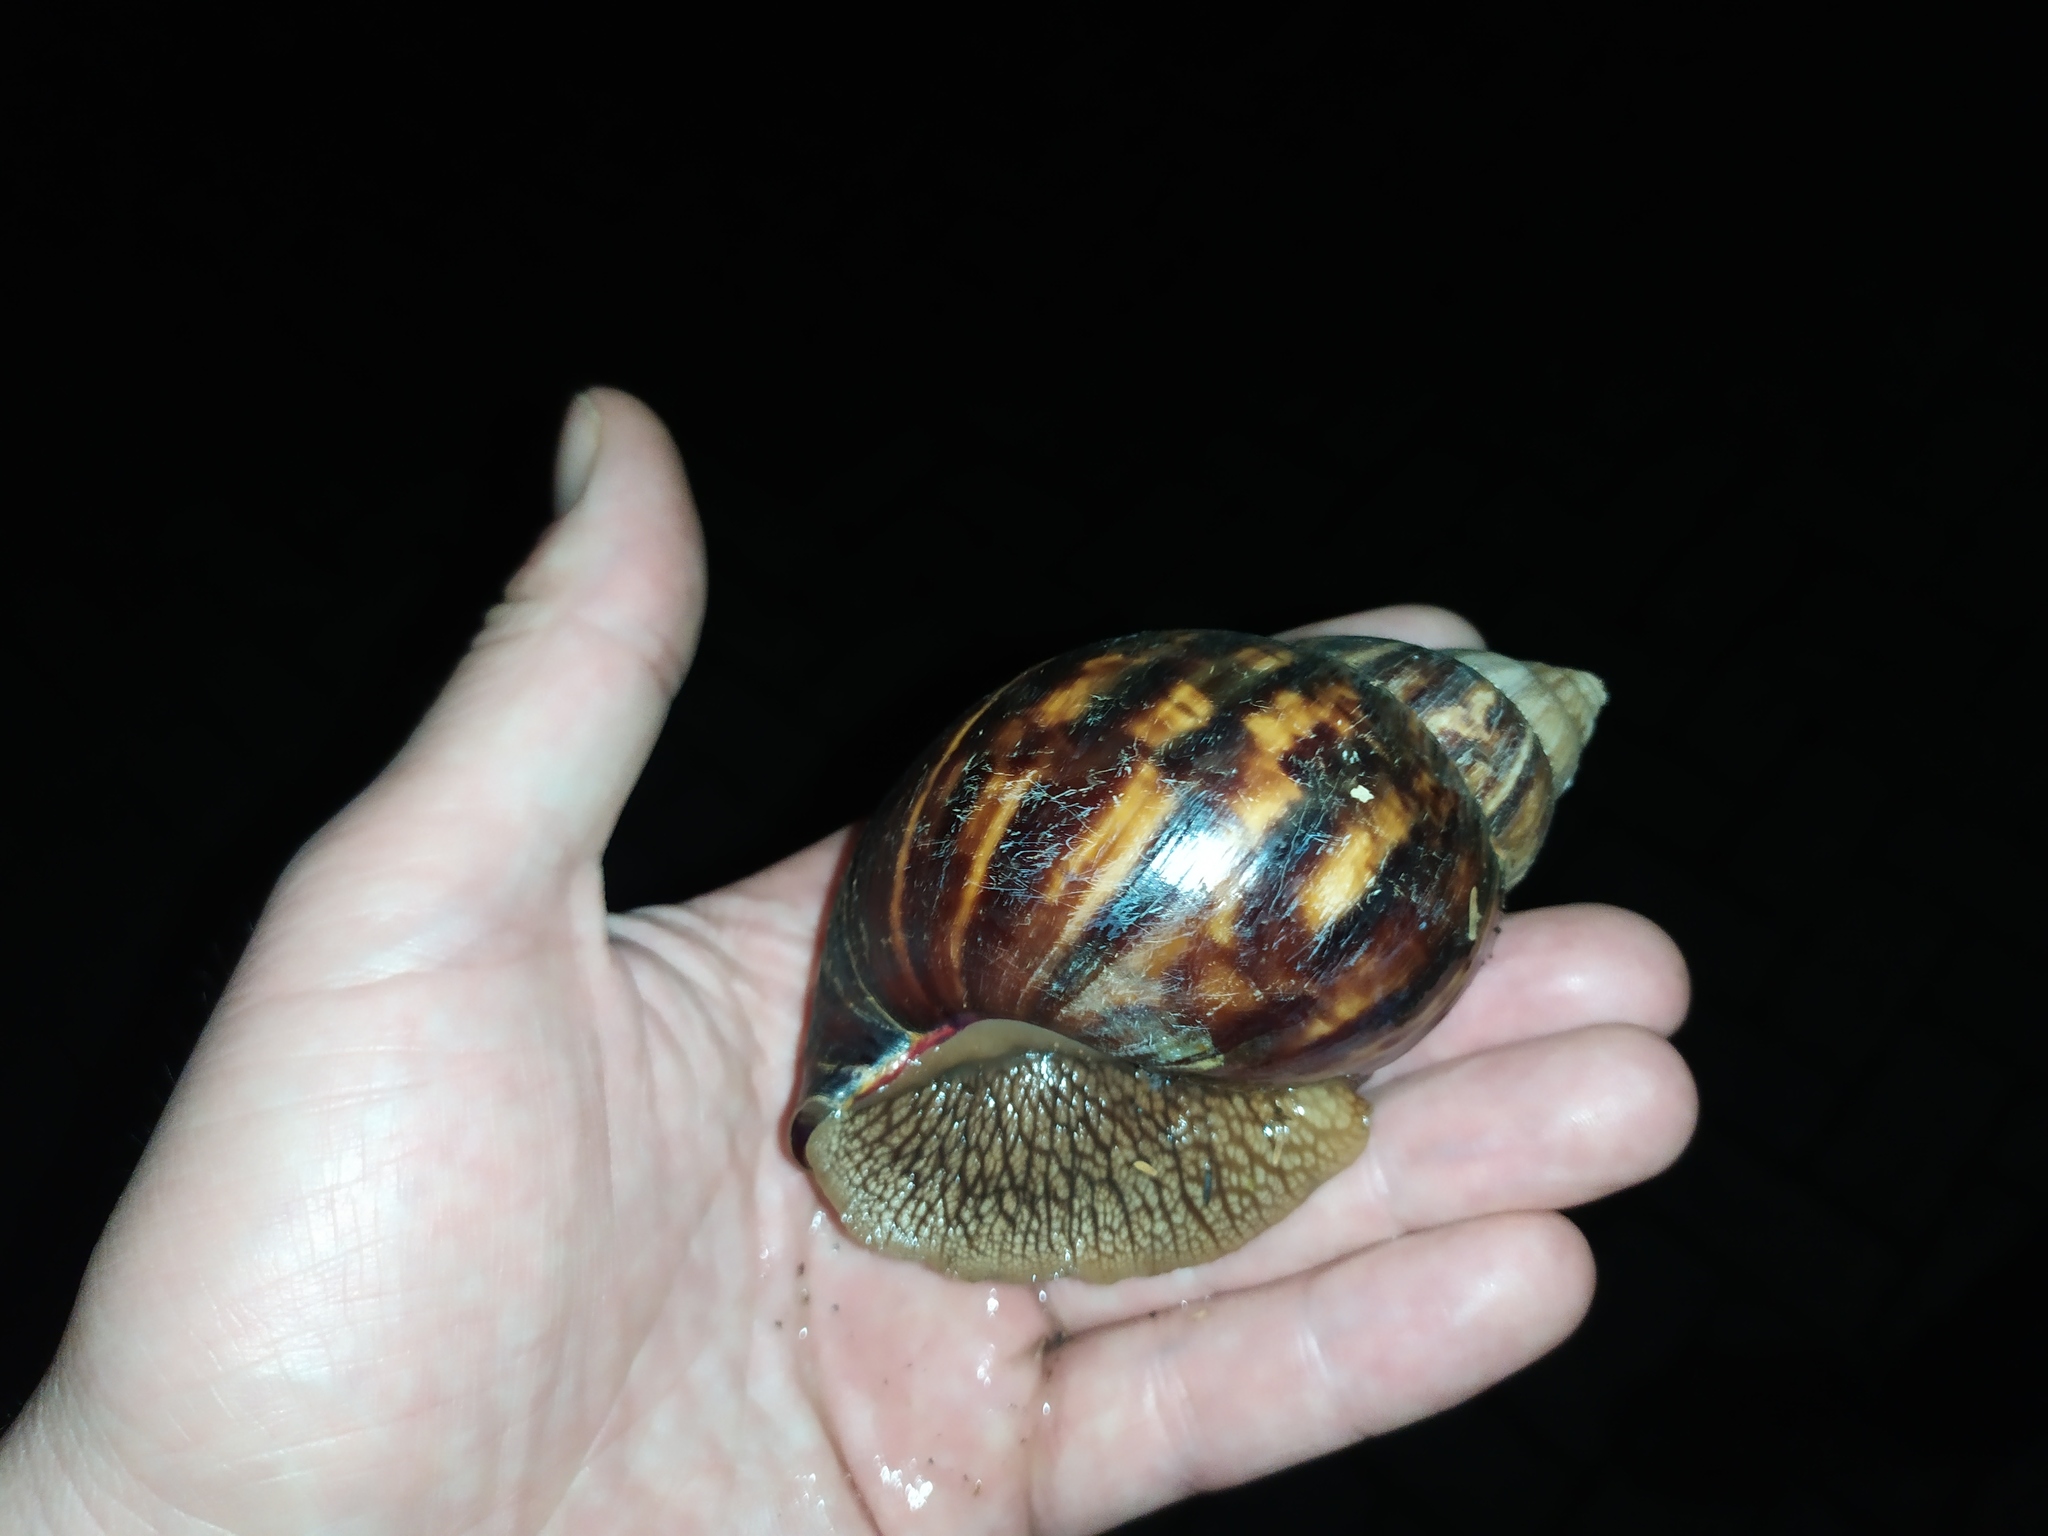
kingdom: Animalia
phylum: Mollusca
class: Gastropoda
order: Stylommatophora
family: Achatinidae
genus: Lissachatina
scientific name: Lissachatina immaculata
